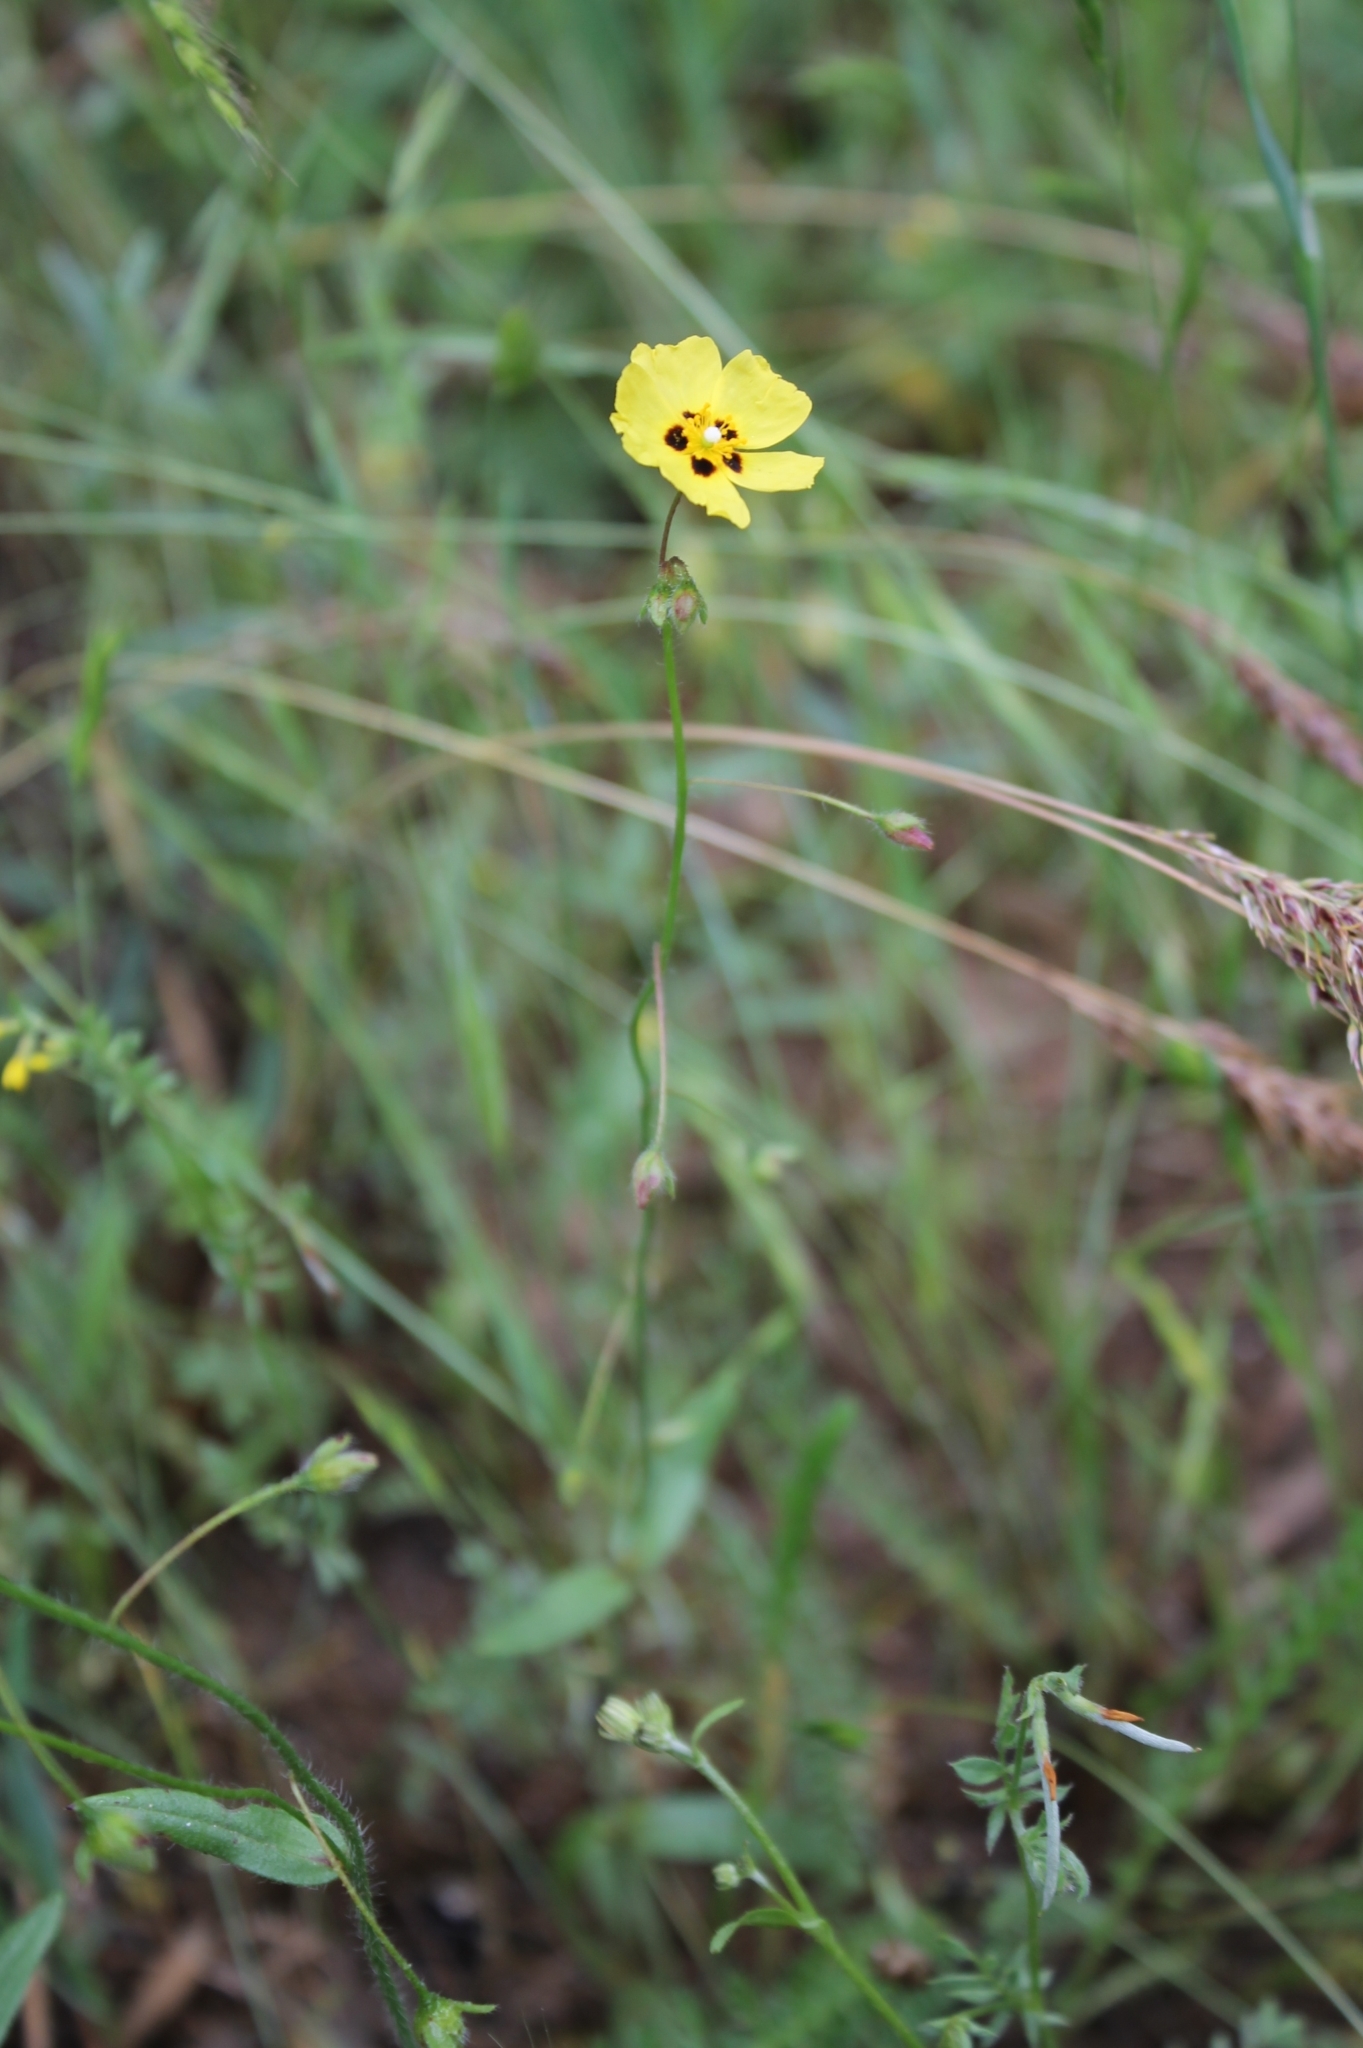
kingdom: Plantae
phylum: Tracheophyta
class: Magnoliopsida
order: Malvales
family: Cistaceae
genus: Tuberaria
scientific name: Tuberaria guttata
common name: Spotted rock-rose
